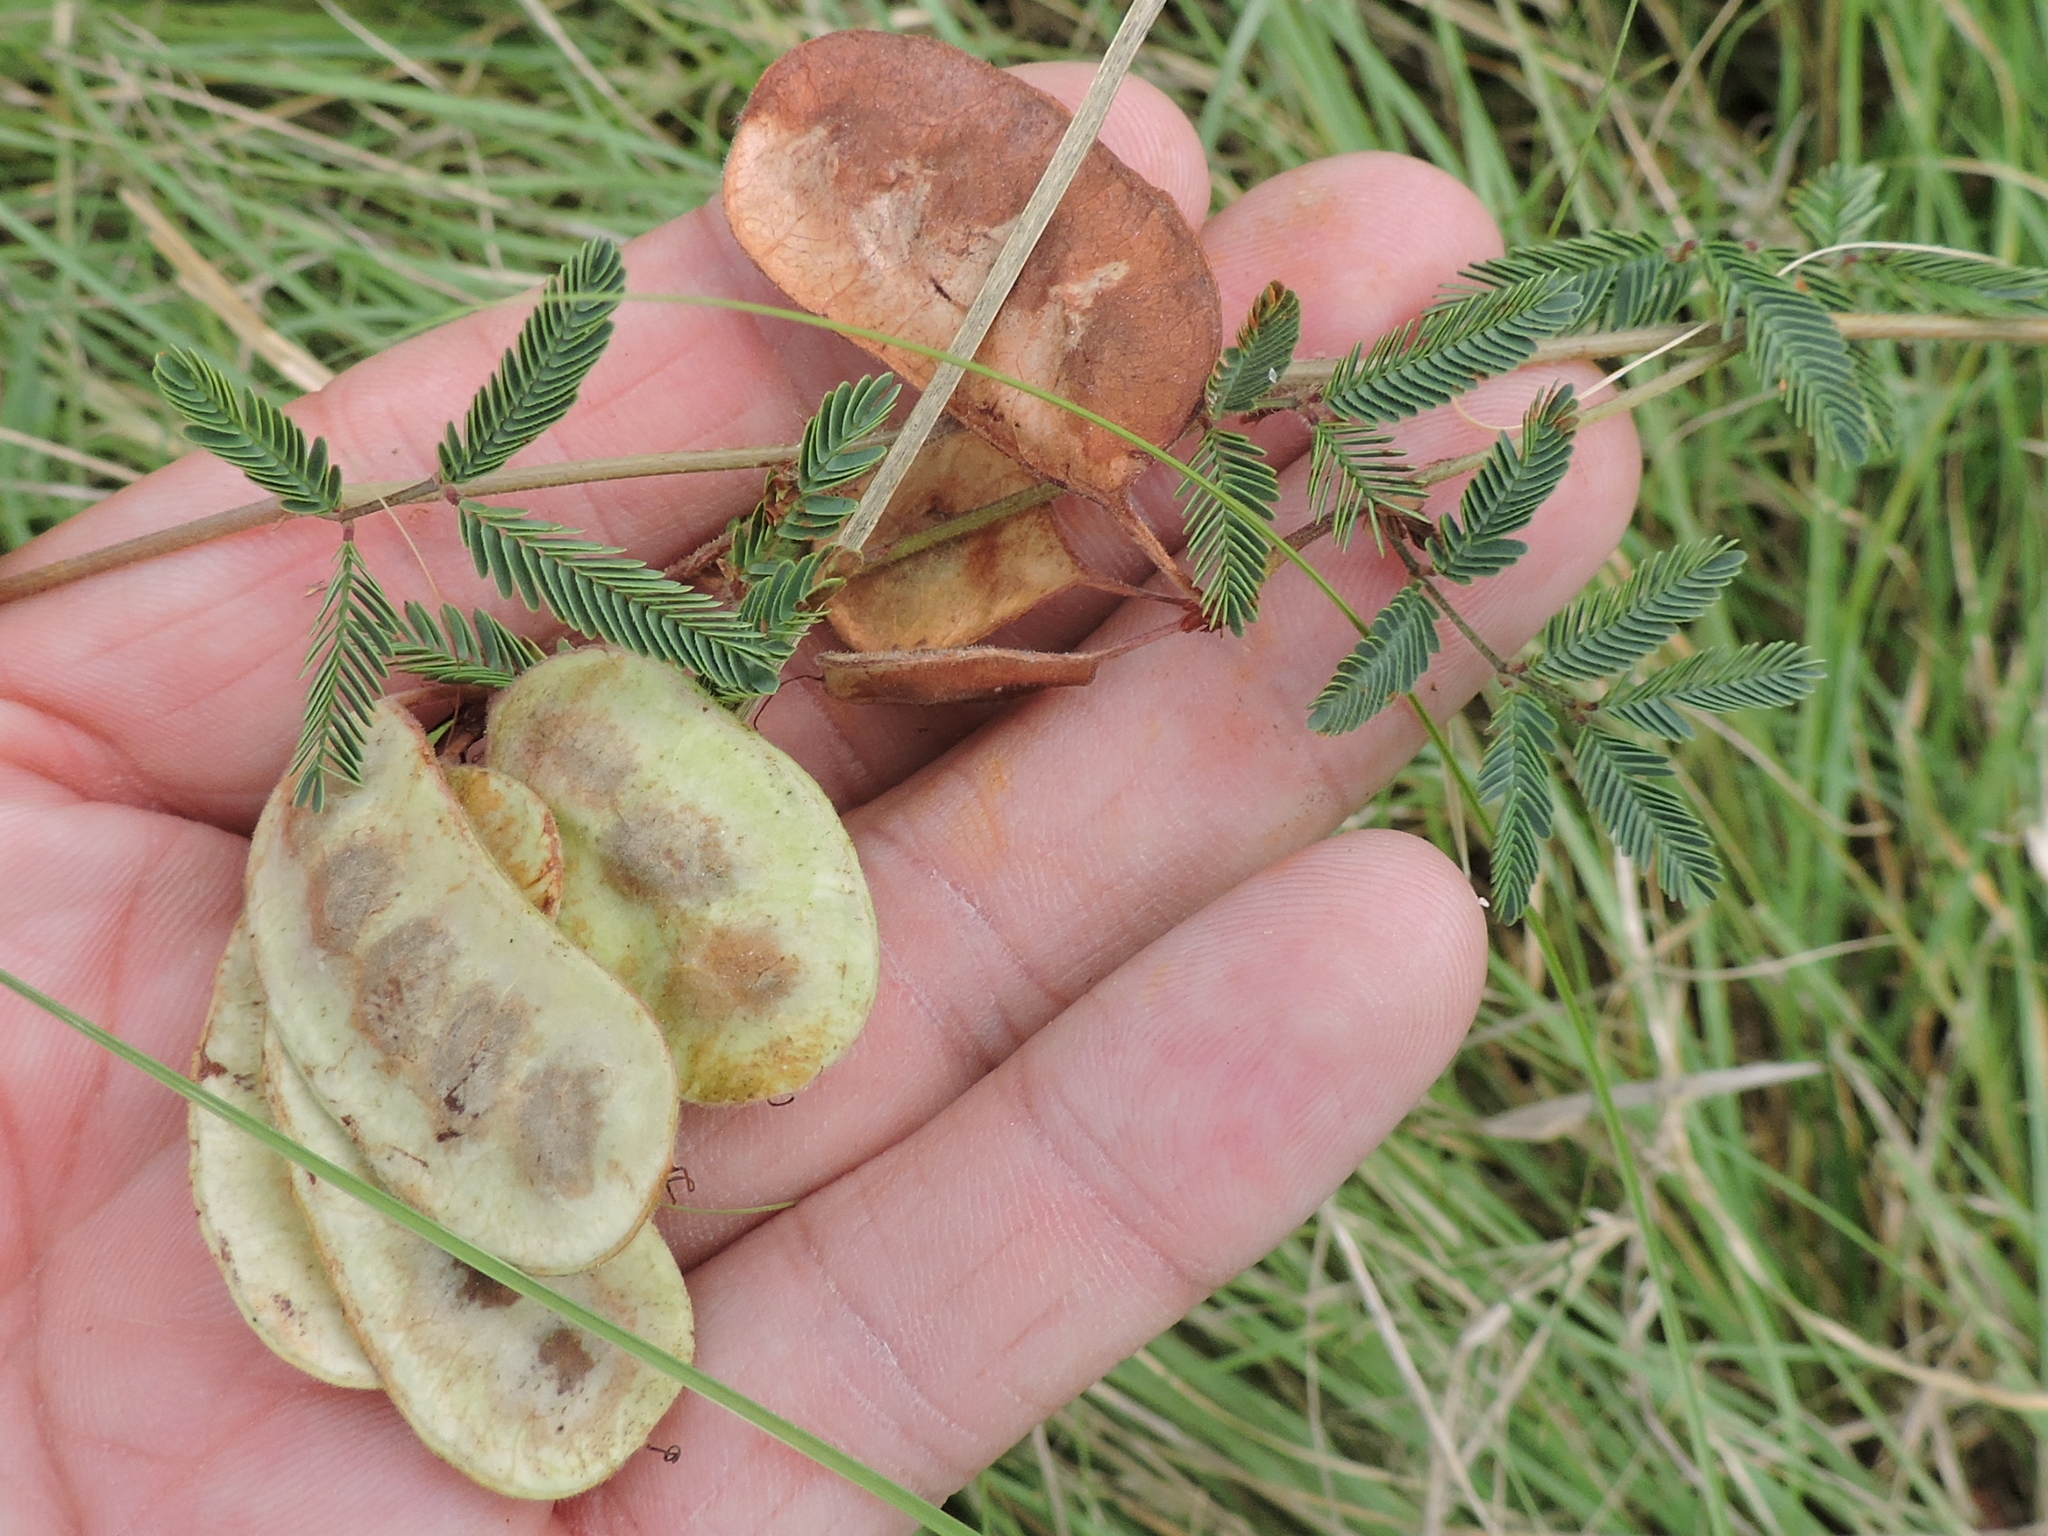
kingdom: Plantae
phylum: Tracheophyta
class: Magnoliopsida
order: Fabales
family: Fabaceae
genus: Neptunia
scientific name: Neptunia lutea
